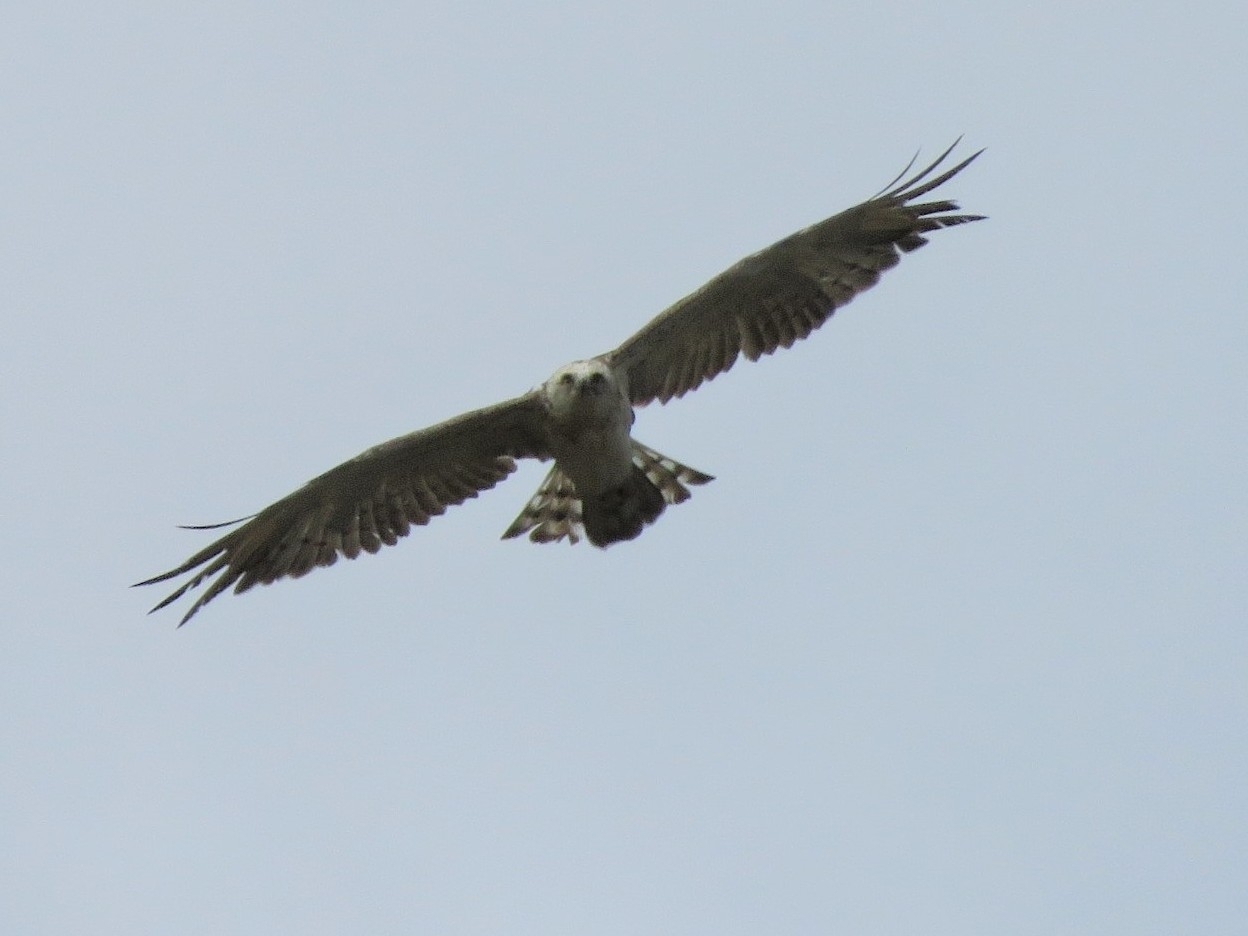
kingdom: Animalia
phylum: Chordata
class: Aves
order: Accipitriformes
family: Accipitridae
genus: Circaetus
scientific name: Circaetus gallicus
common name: Short-toed snake eagle
